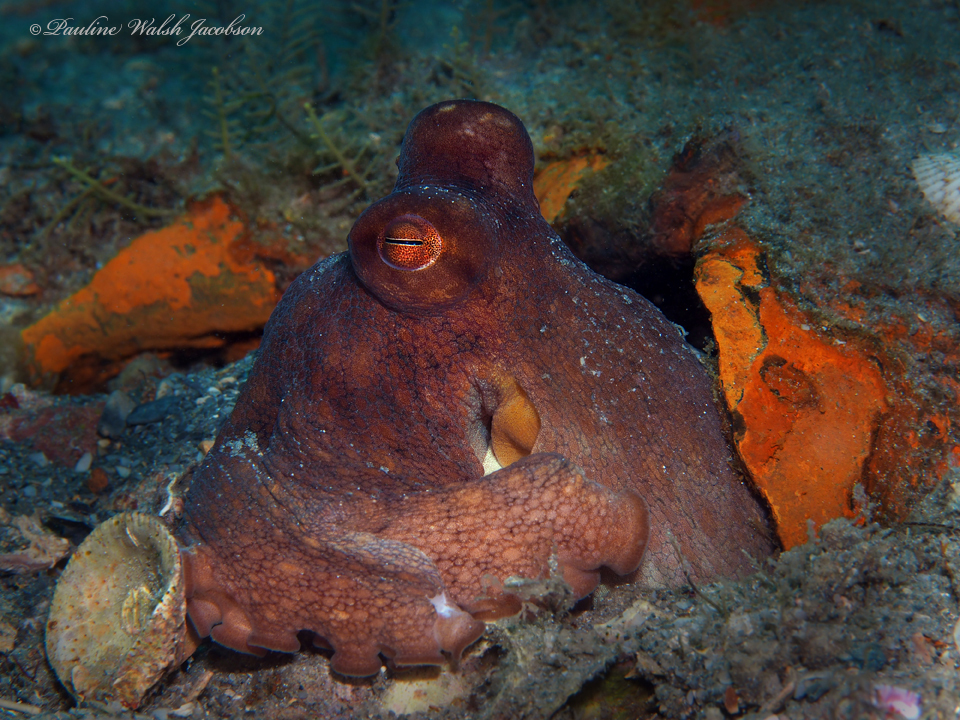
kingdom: Animalia
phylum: Mollusca
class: Cephalopoda
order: Octopoda
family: Octopodidae
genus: Octopus
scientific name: Octopus americanus
